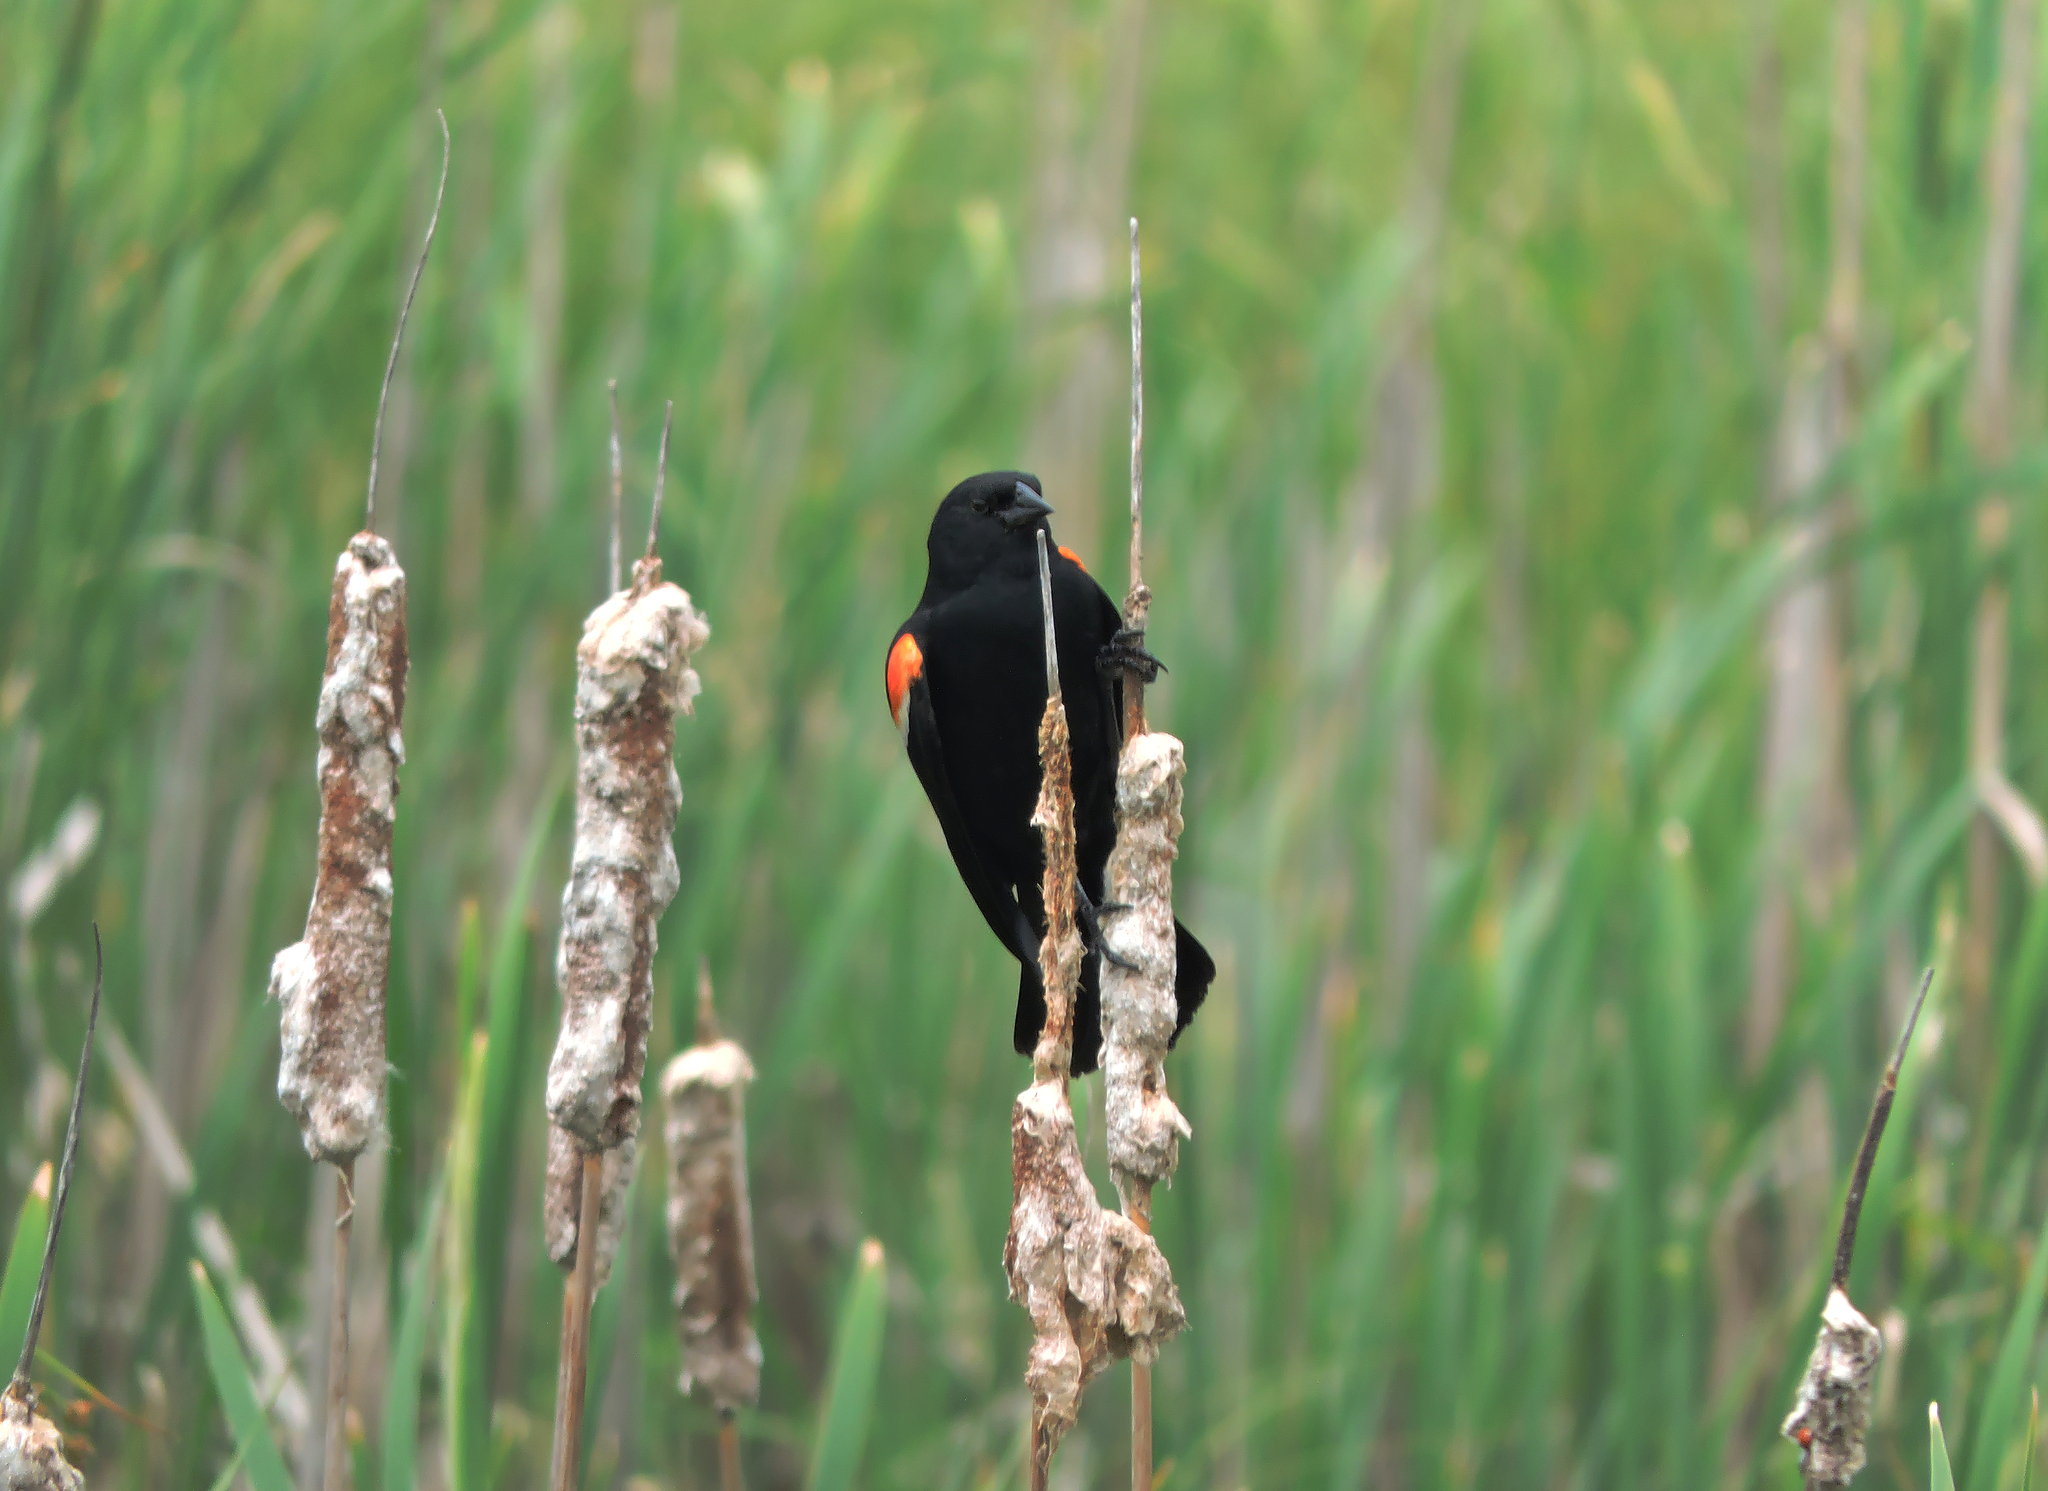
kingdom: Animalia
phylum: Chordata
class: Aves
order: Passeriformes
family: Icteridae
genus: Agelaius
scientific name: Agelaius phoeniceus
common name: Red-winged blackbird
